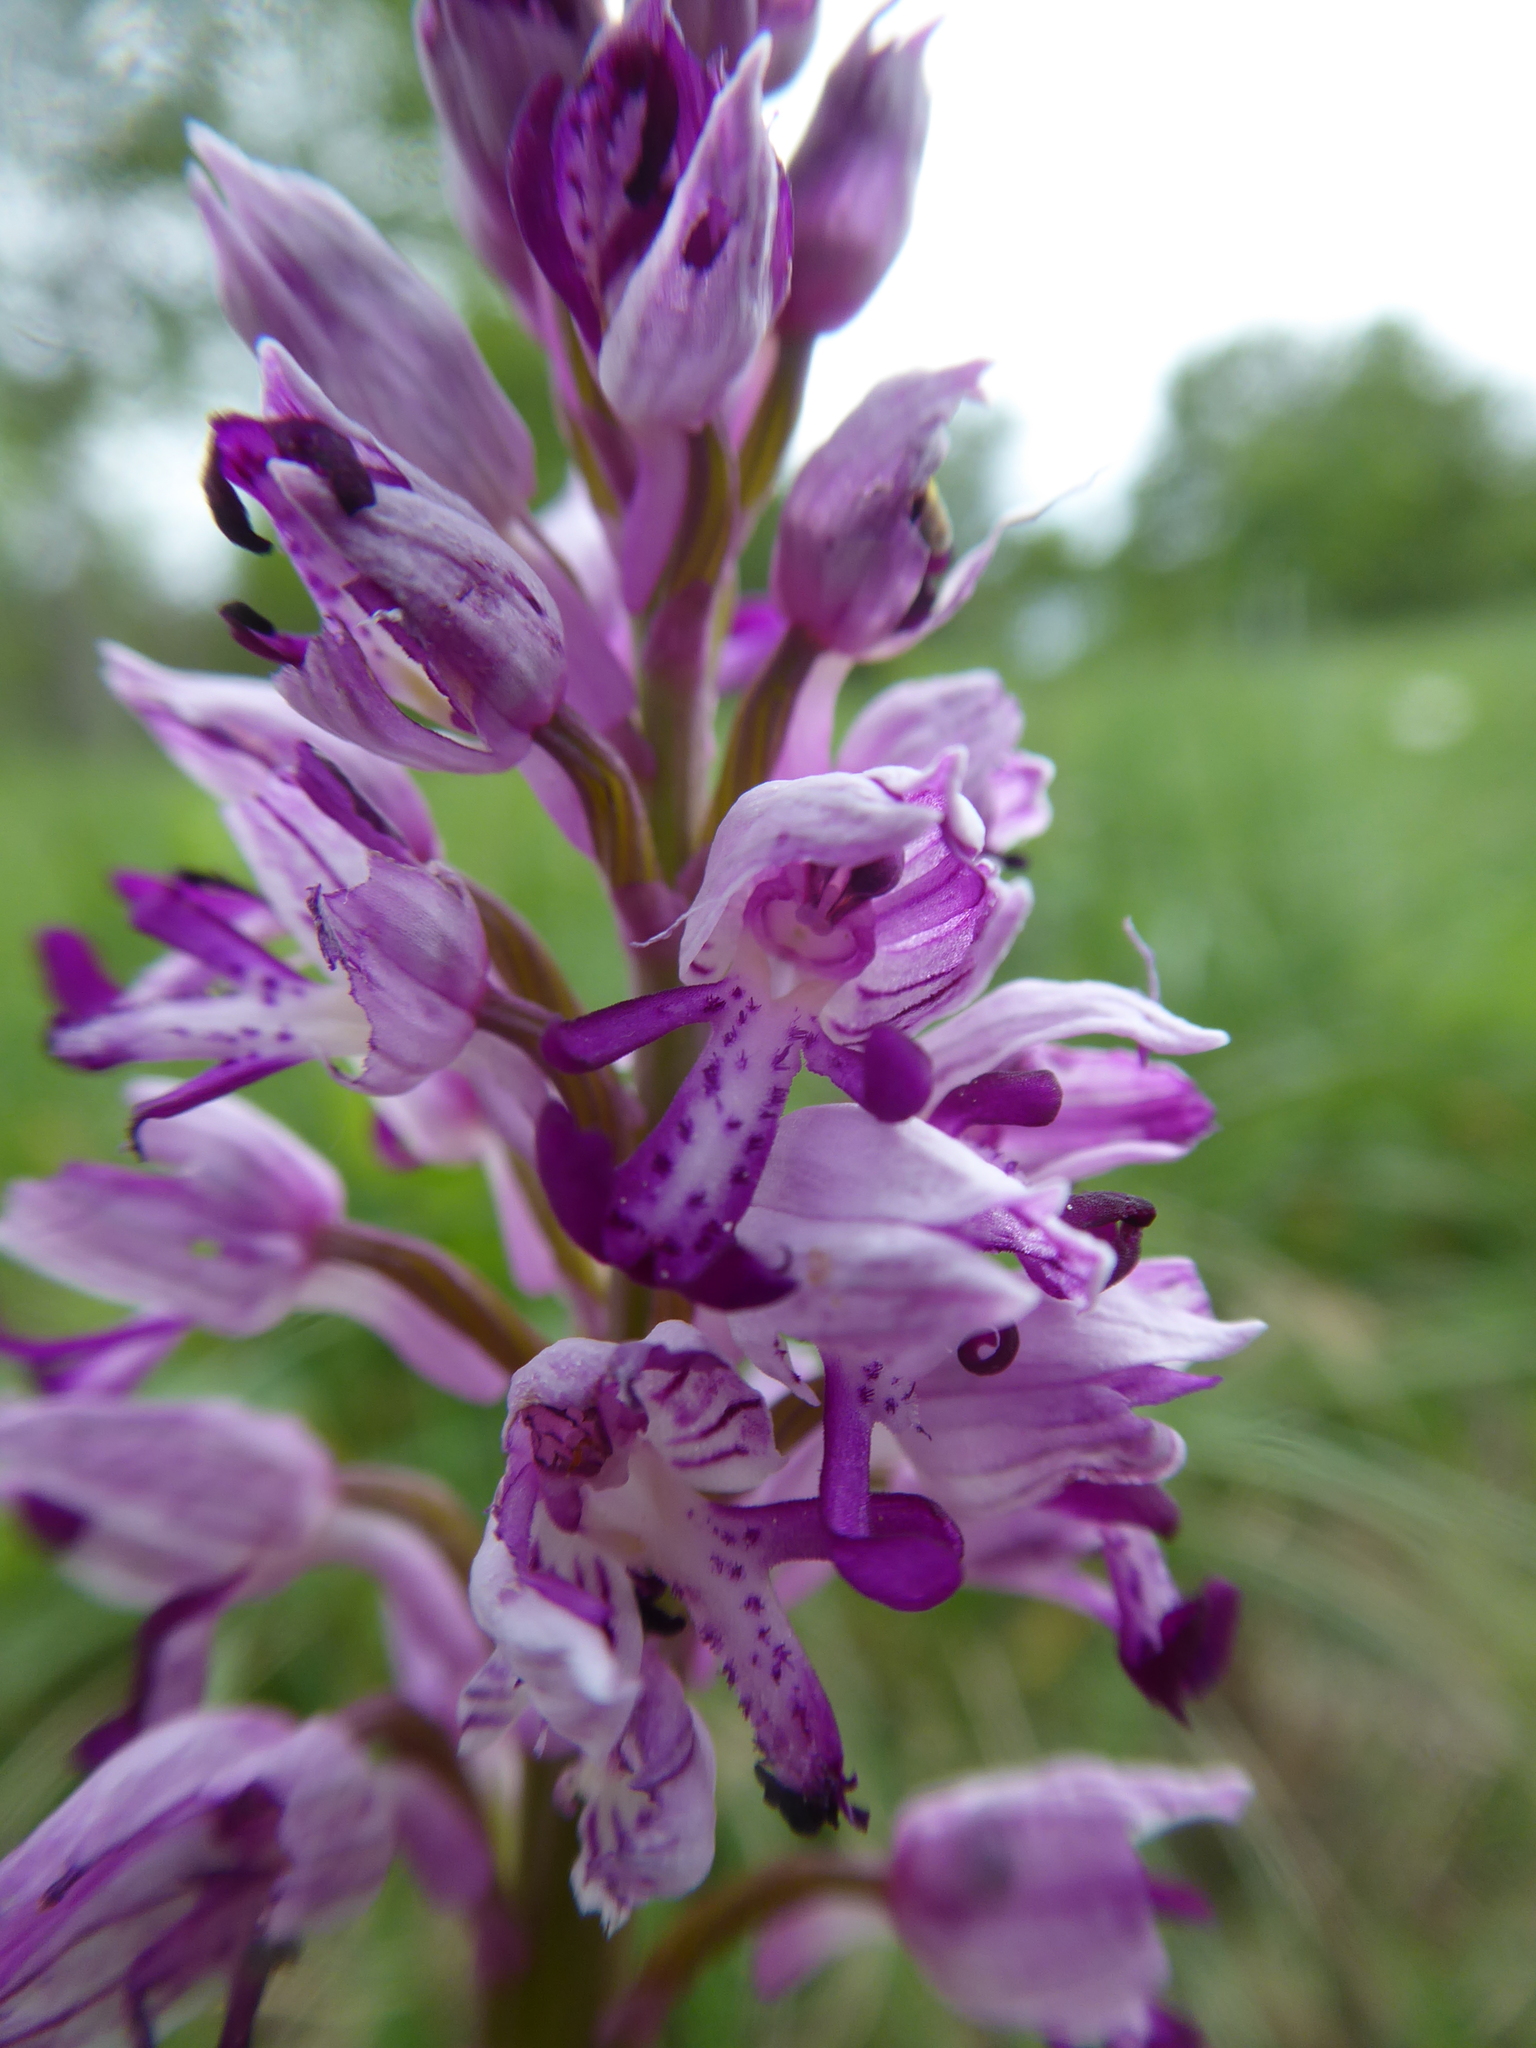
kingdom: Plantae
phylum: Tracheophyta
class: Liliopsida
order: Asparagales
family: Orchidaceae
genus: Orchis
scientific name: Orchis militaris
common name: Military orchid
